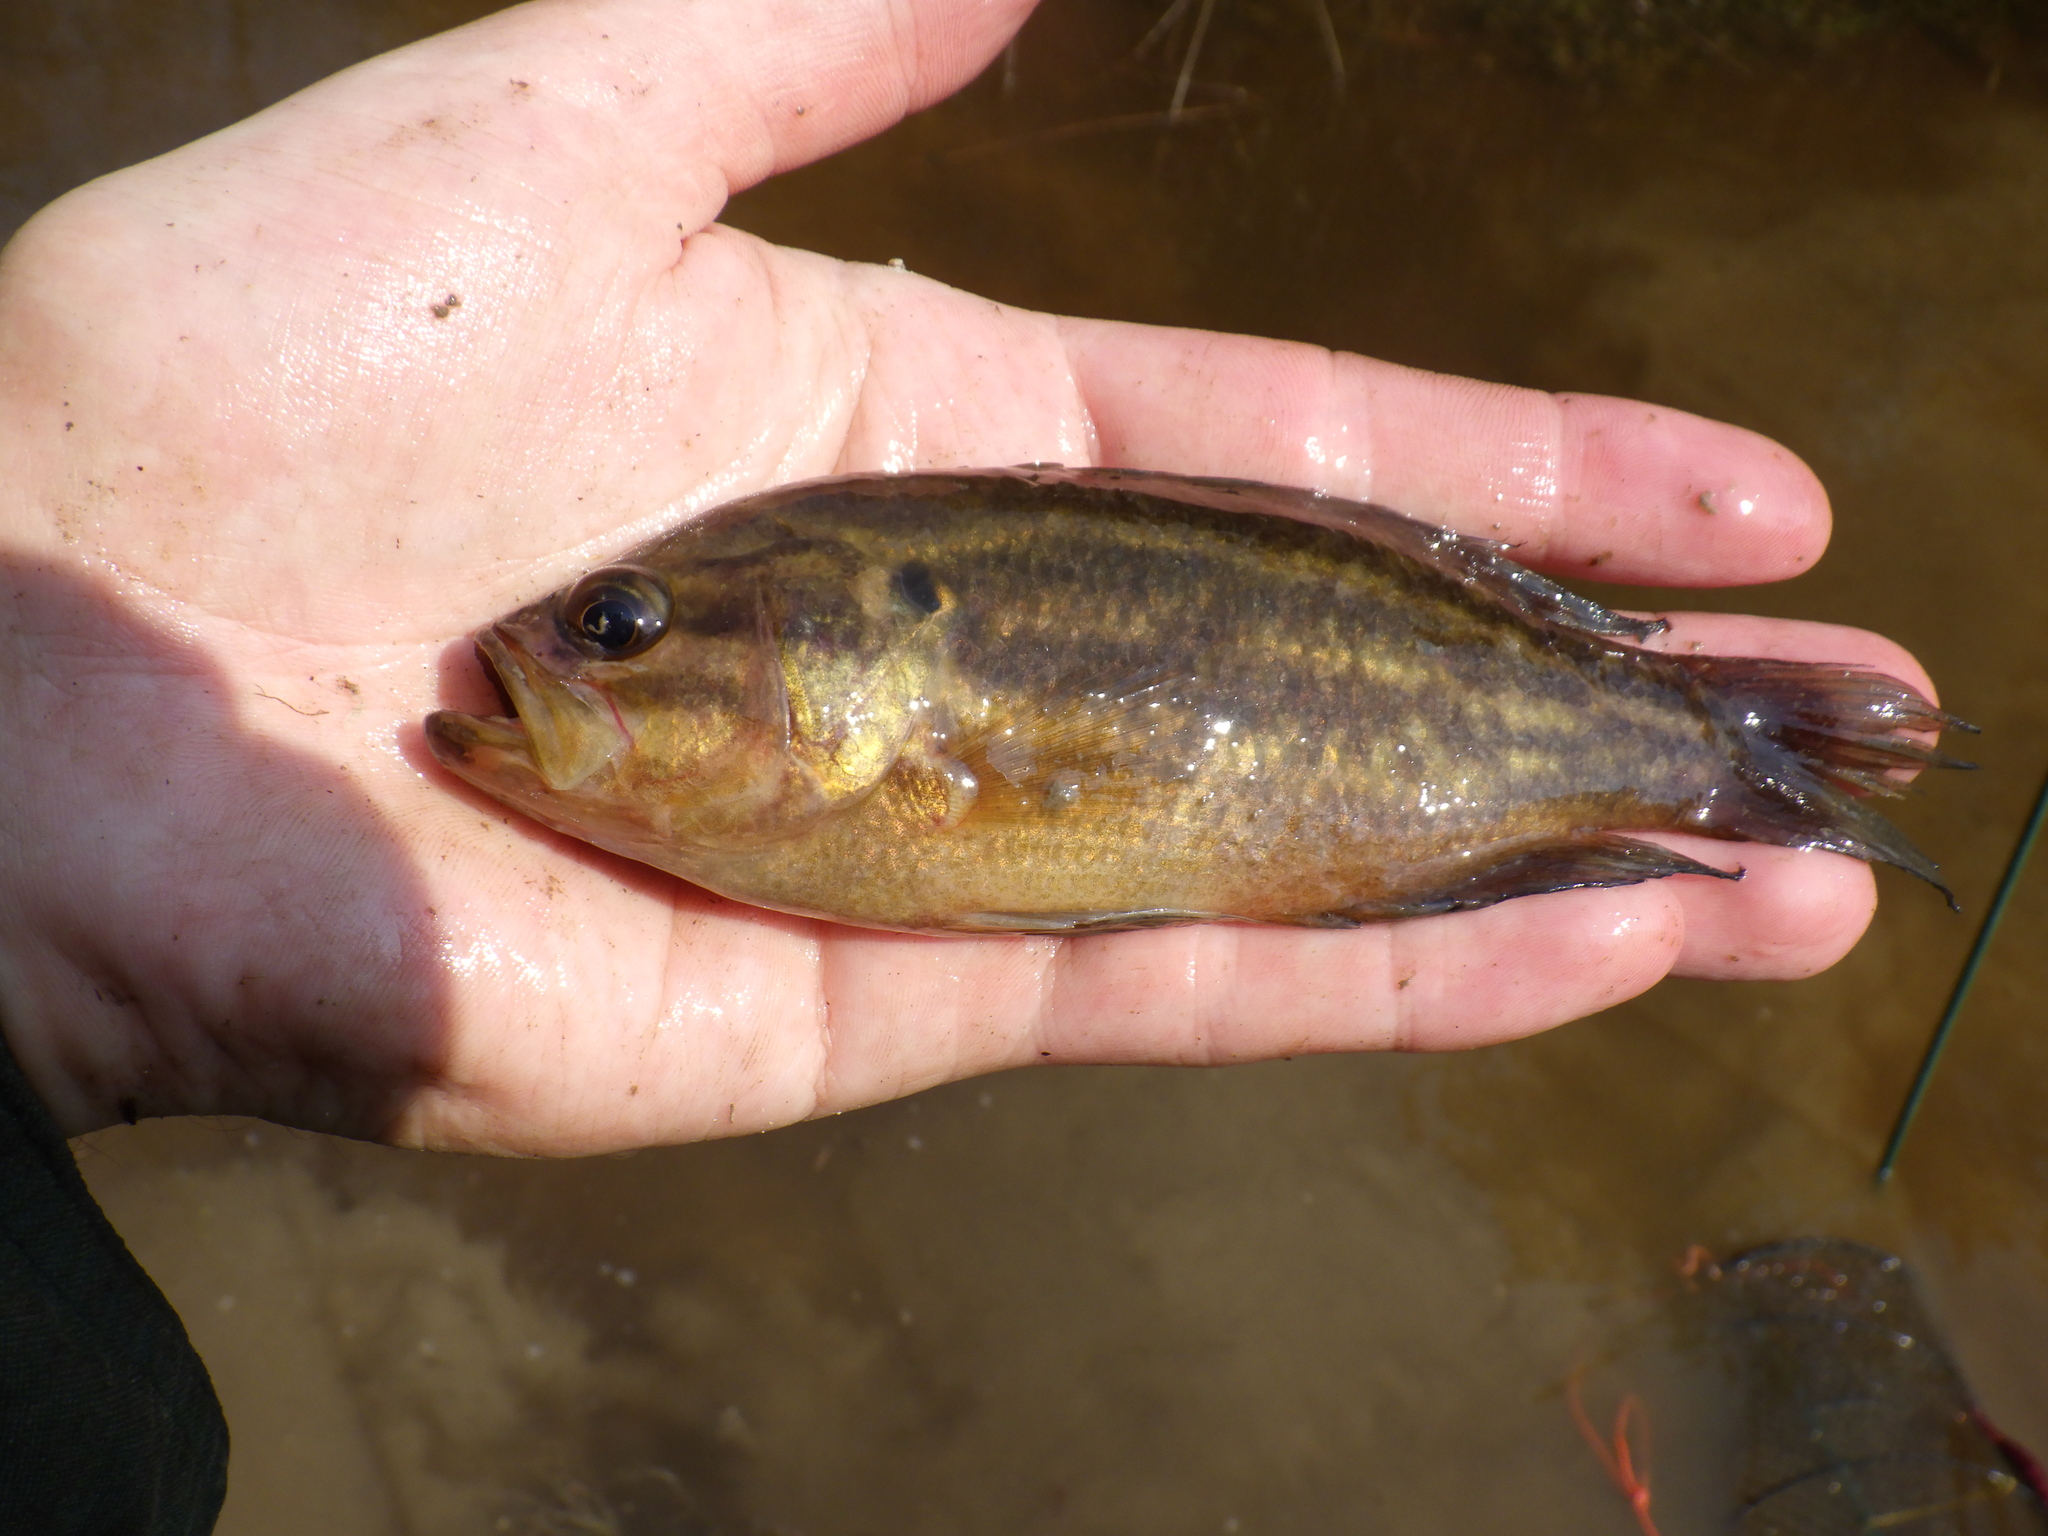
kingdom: Animalia
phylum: Chordata
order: Perciformes
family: Centrarchidae
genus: Acantharchus
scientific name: Acantharchus pomotis
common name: Mud sunfish
